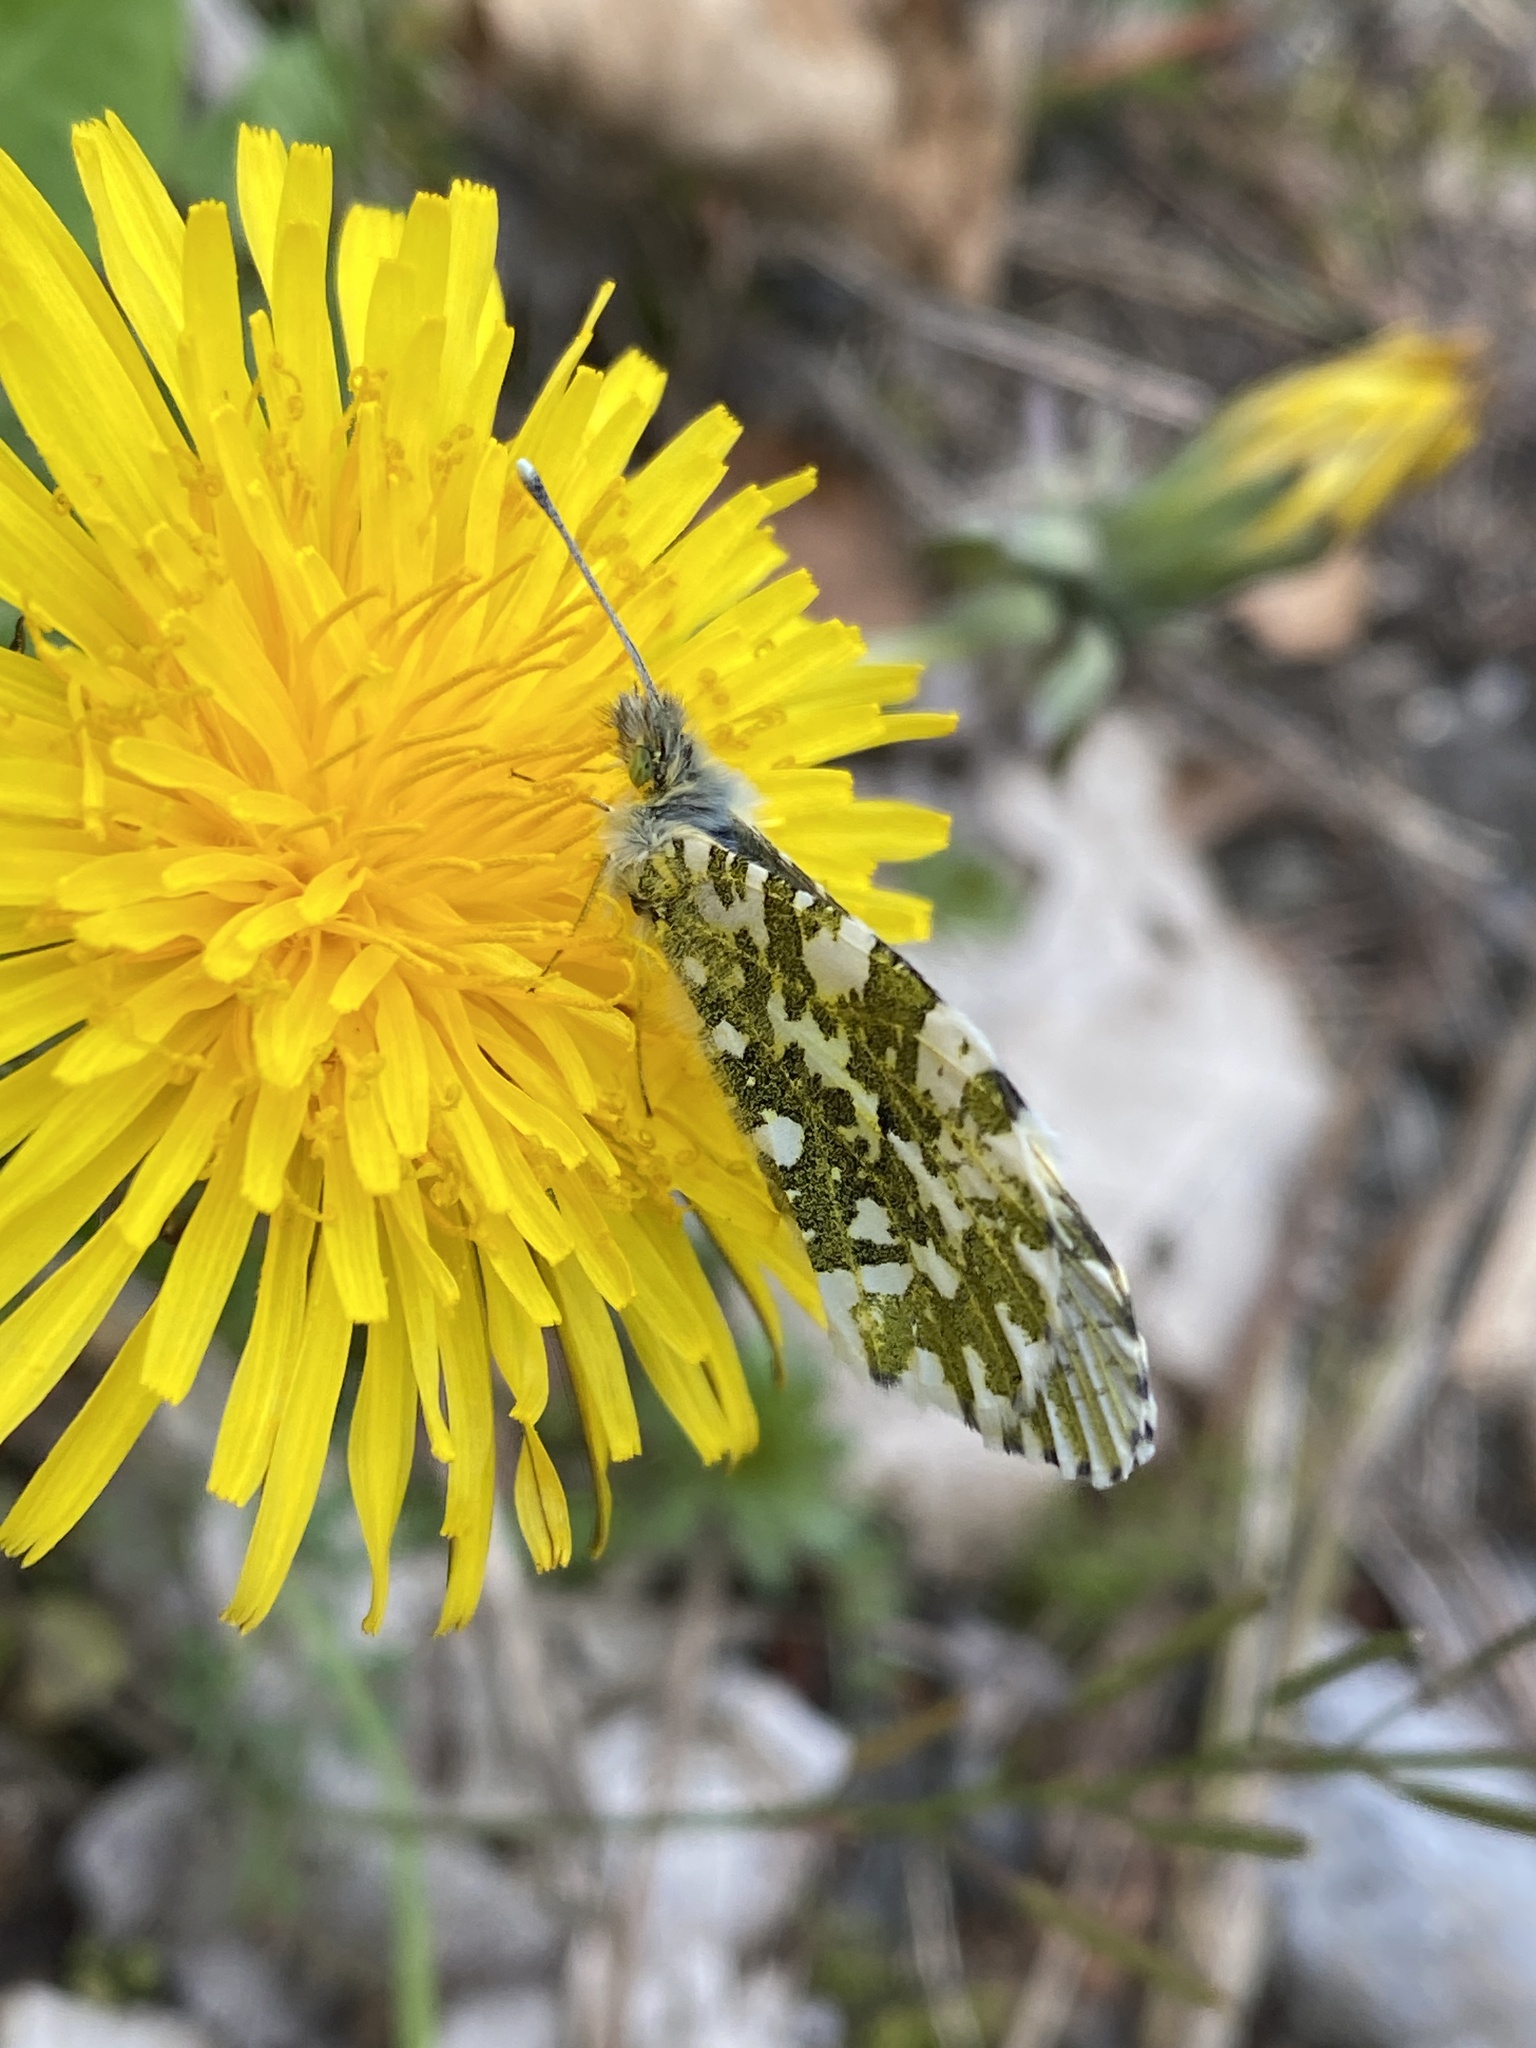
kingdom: Animalia
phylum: Arthropoda
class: Insecta
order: Lepidoptera
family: Pieridae
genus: Anthocharis
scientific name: Anthocharis cardamines
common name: Orange-tip
